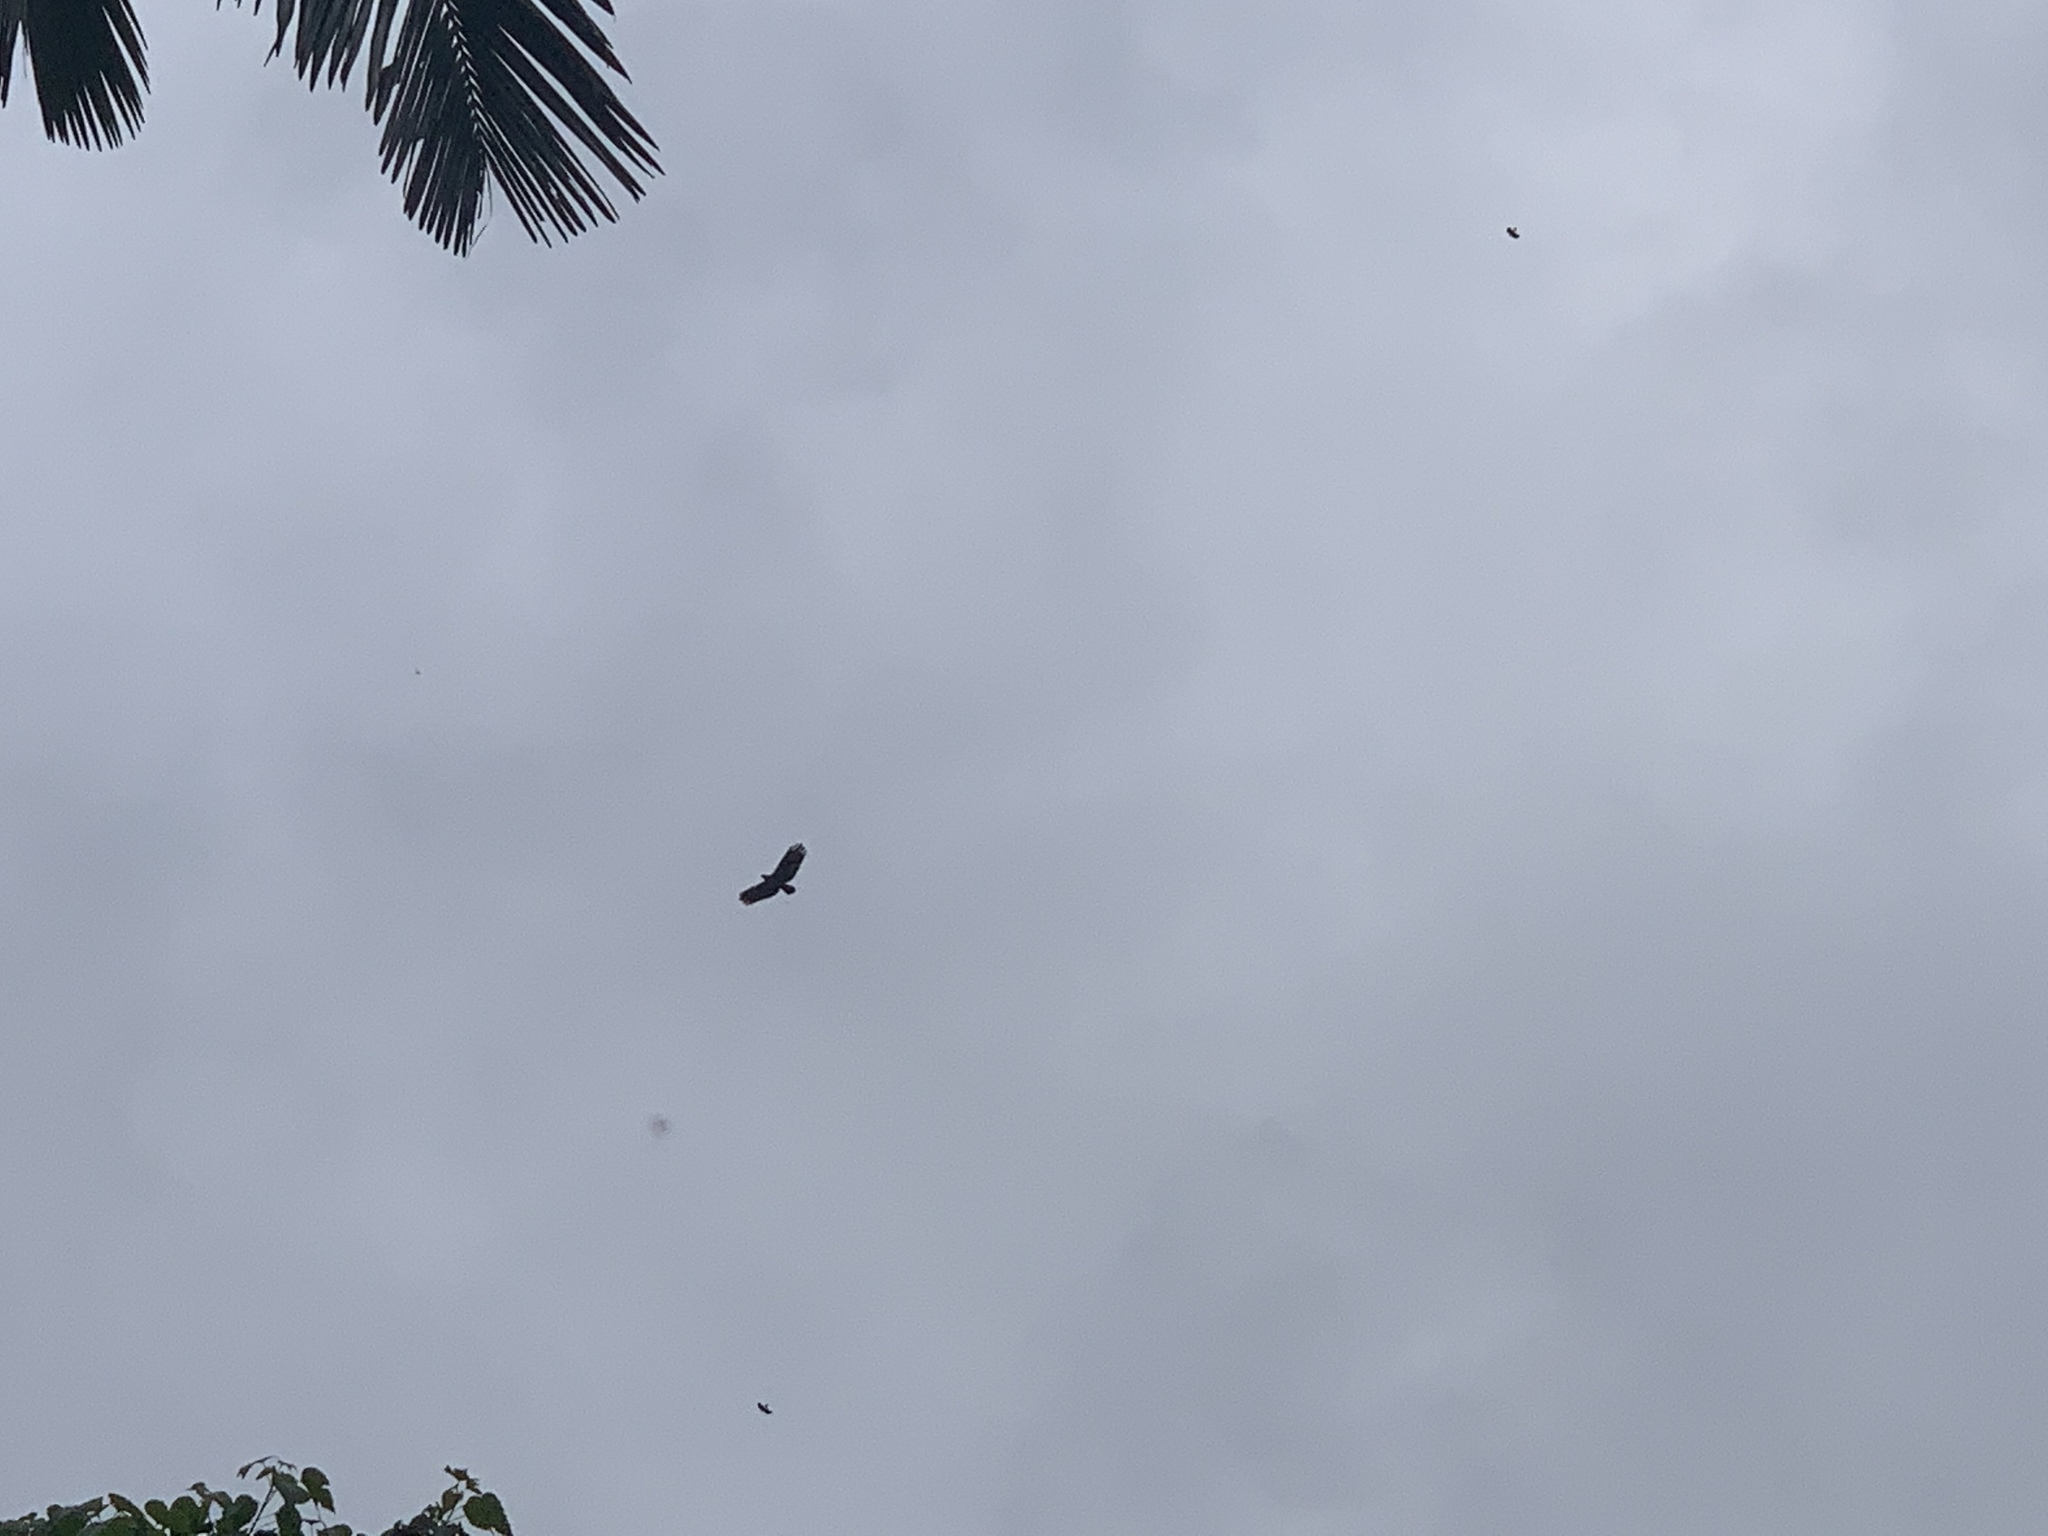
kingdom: Animalia
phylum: Chordata
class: Aves
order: Accipitriformes
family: Accipitridae
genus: Spilornis
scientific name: Spilornis cheela
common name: Crested serpent eagle
